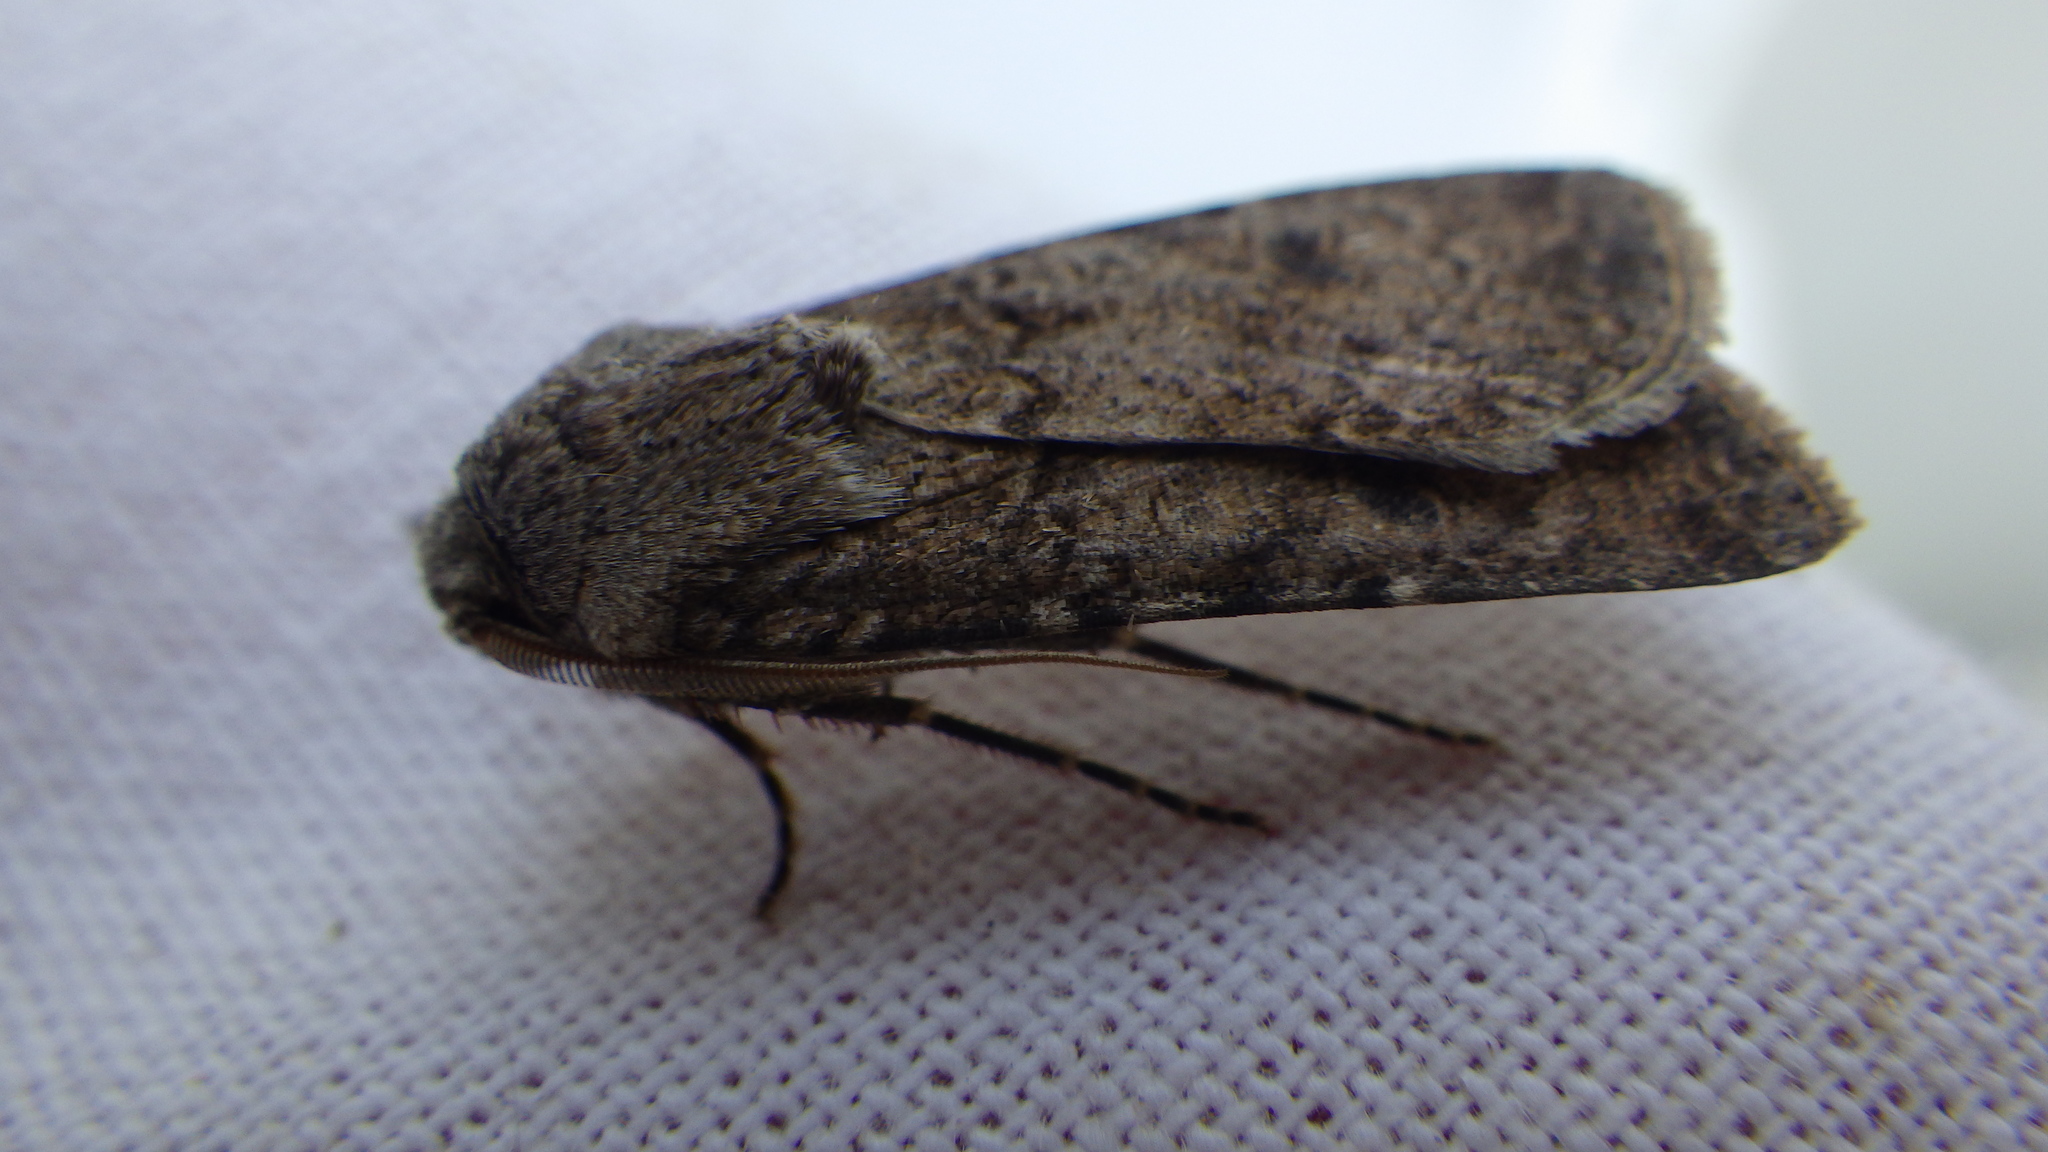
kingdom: Animalia
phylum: Arthropoda
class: Insecta
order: Lepidoptera
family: Noctuidae
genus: Agrotis
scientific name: Agrotis segetum
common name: Turnip moth
